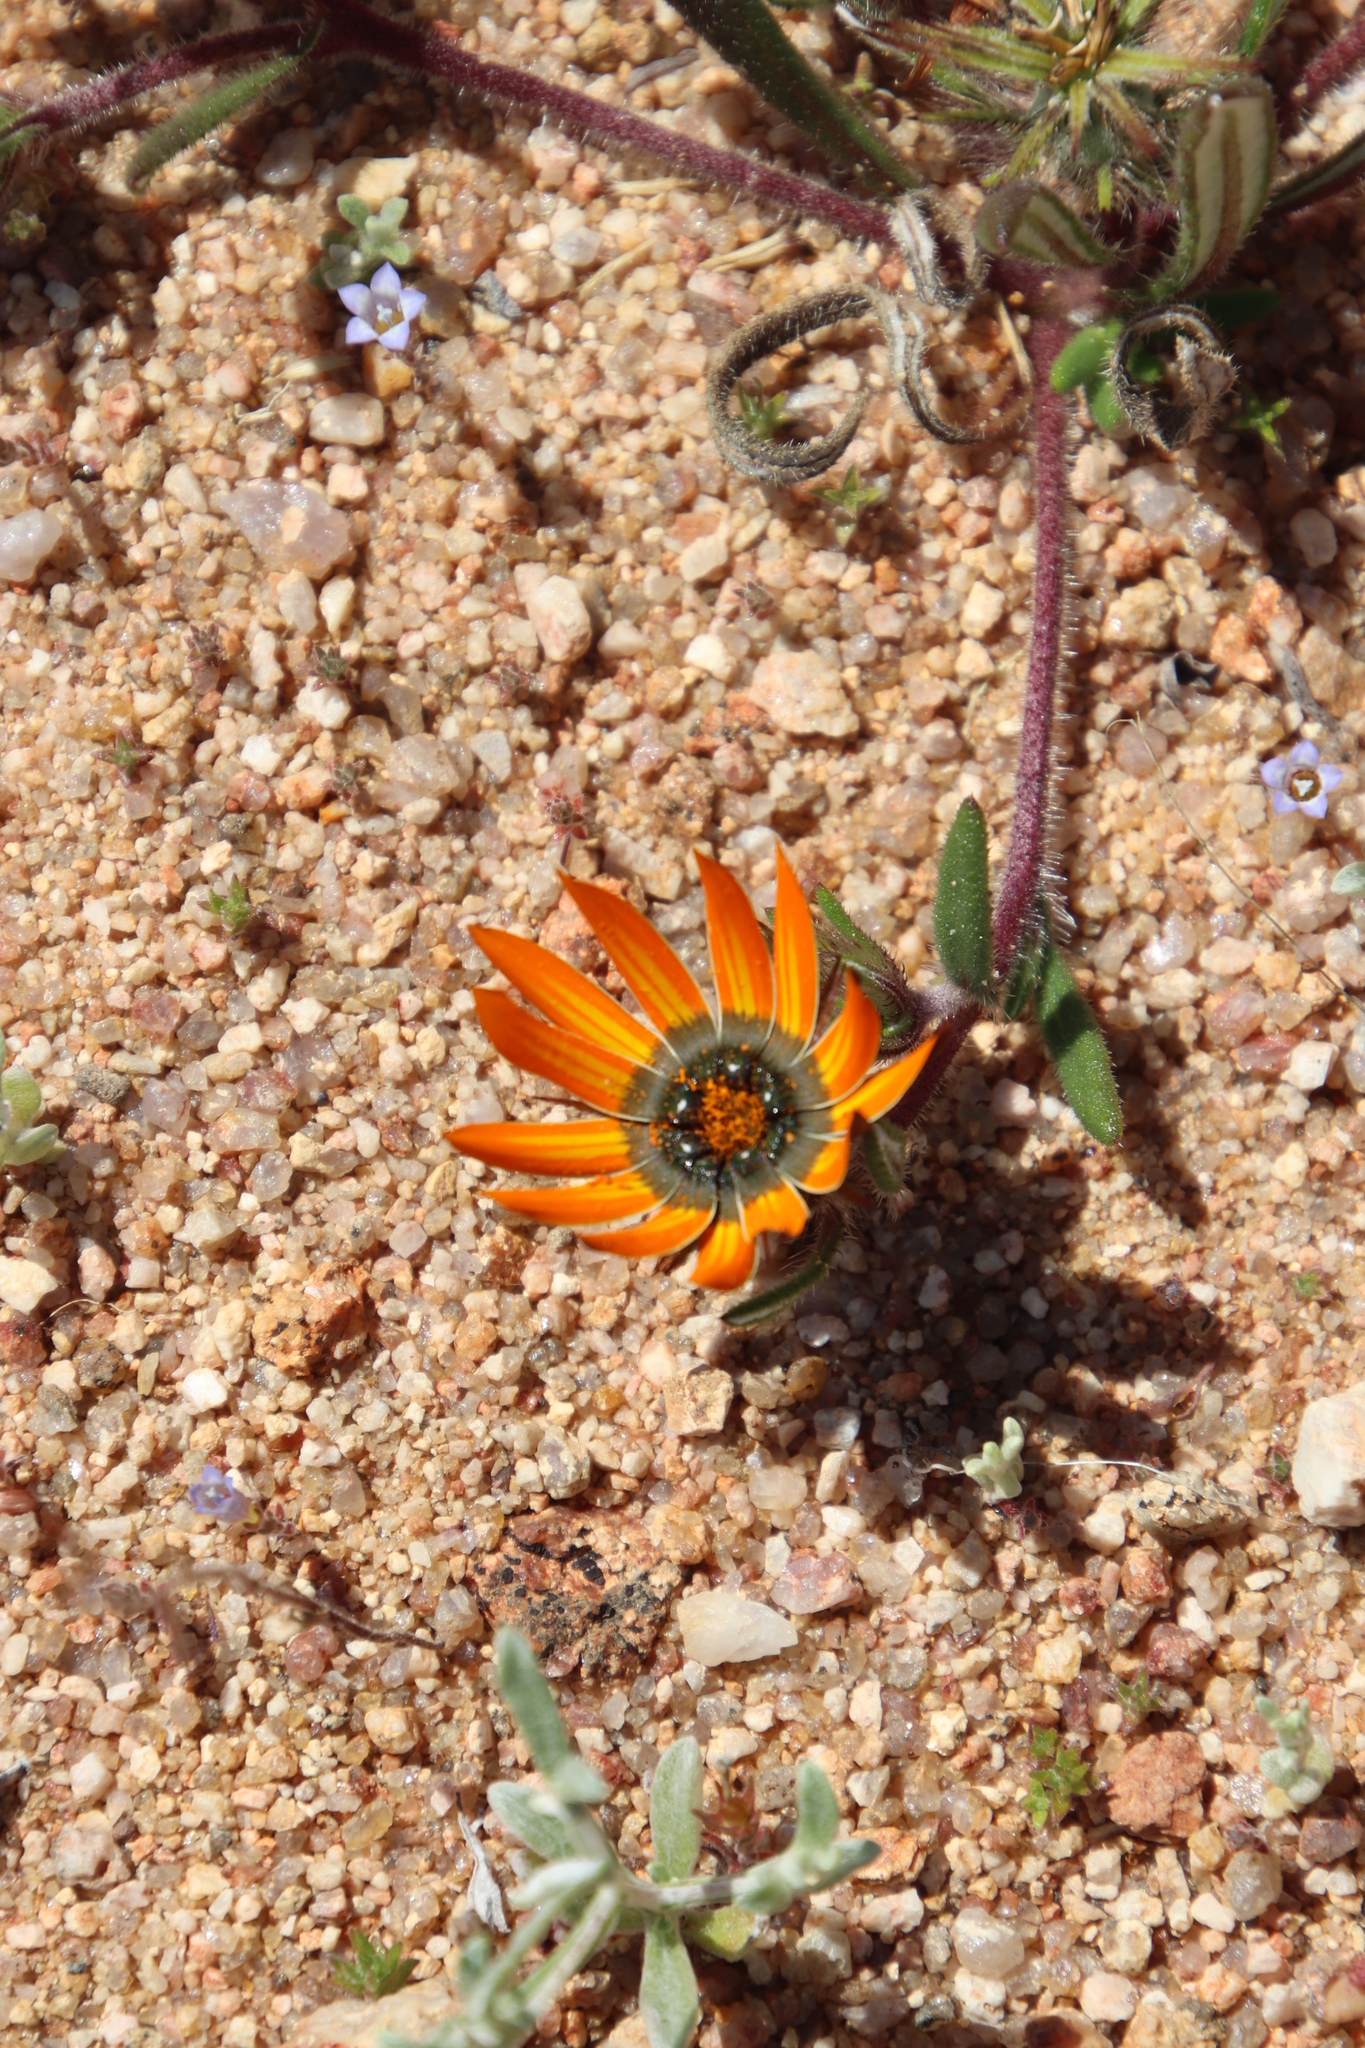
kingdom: Plantae
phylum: Tracheophyta
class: Magnoliopsida
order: Asterales
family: Asteraceae
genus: Gorteria
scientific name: Gorteria diffusa
